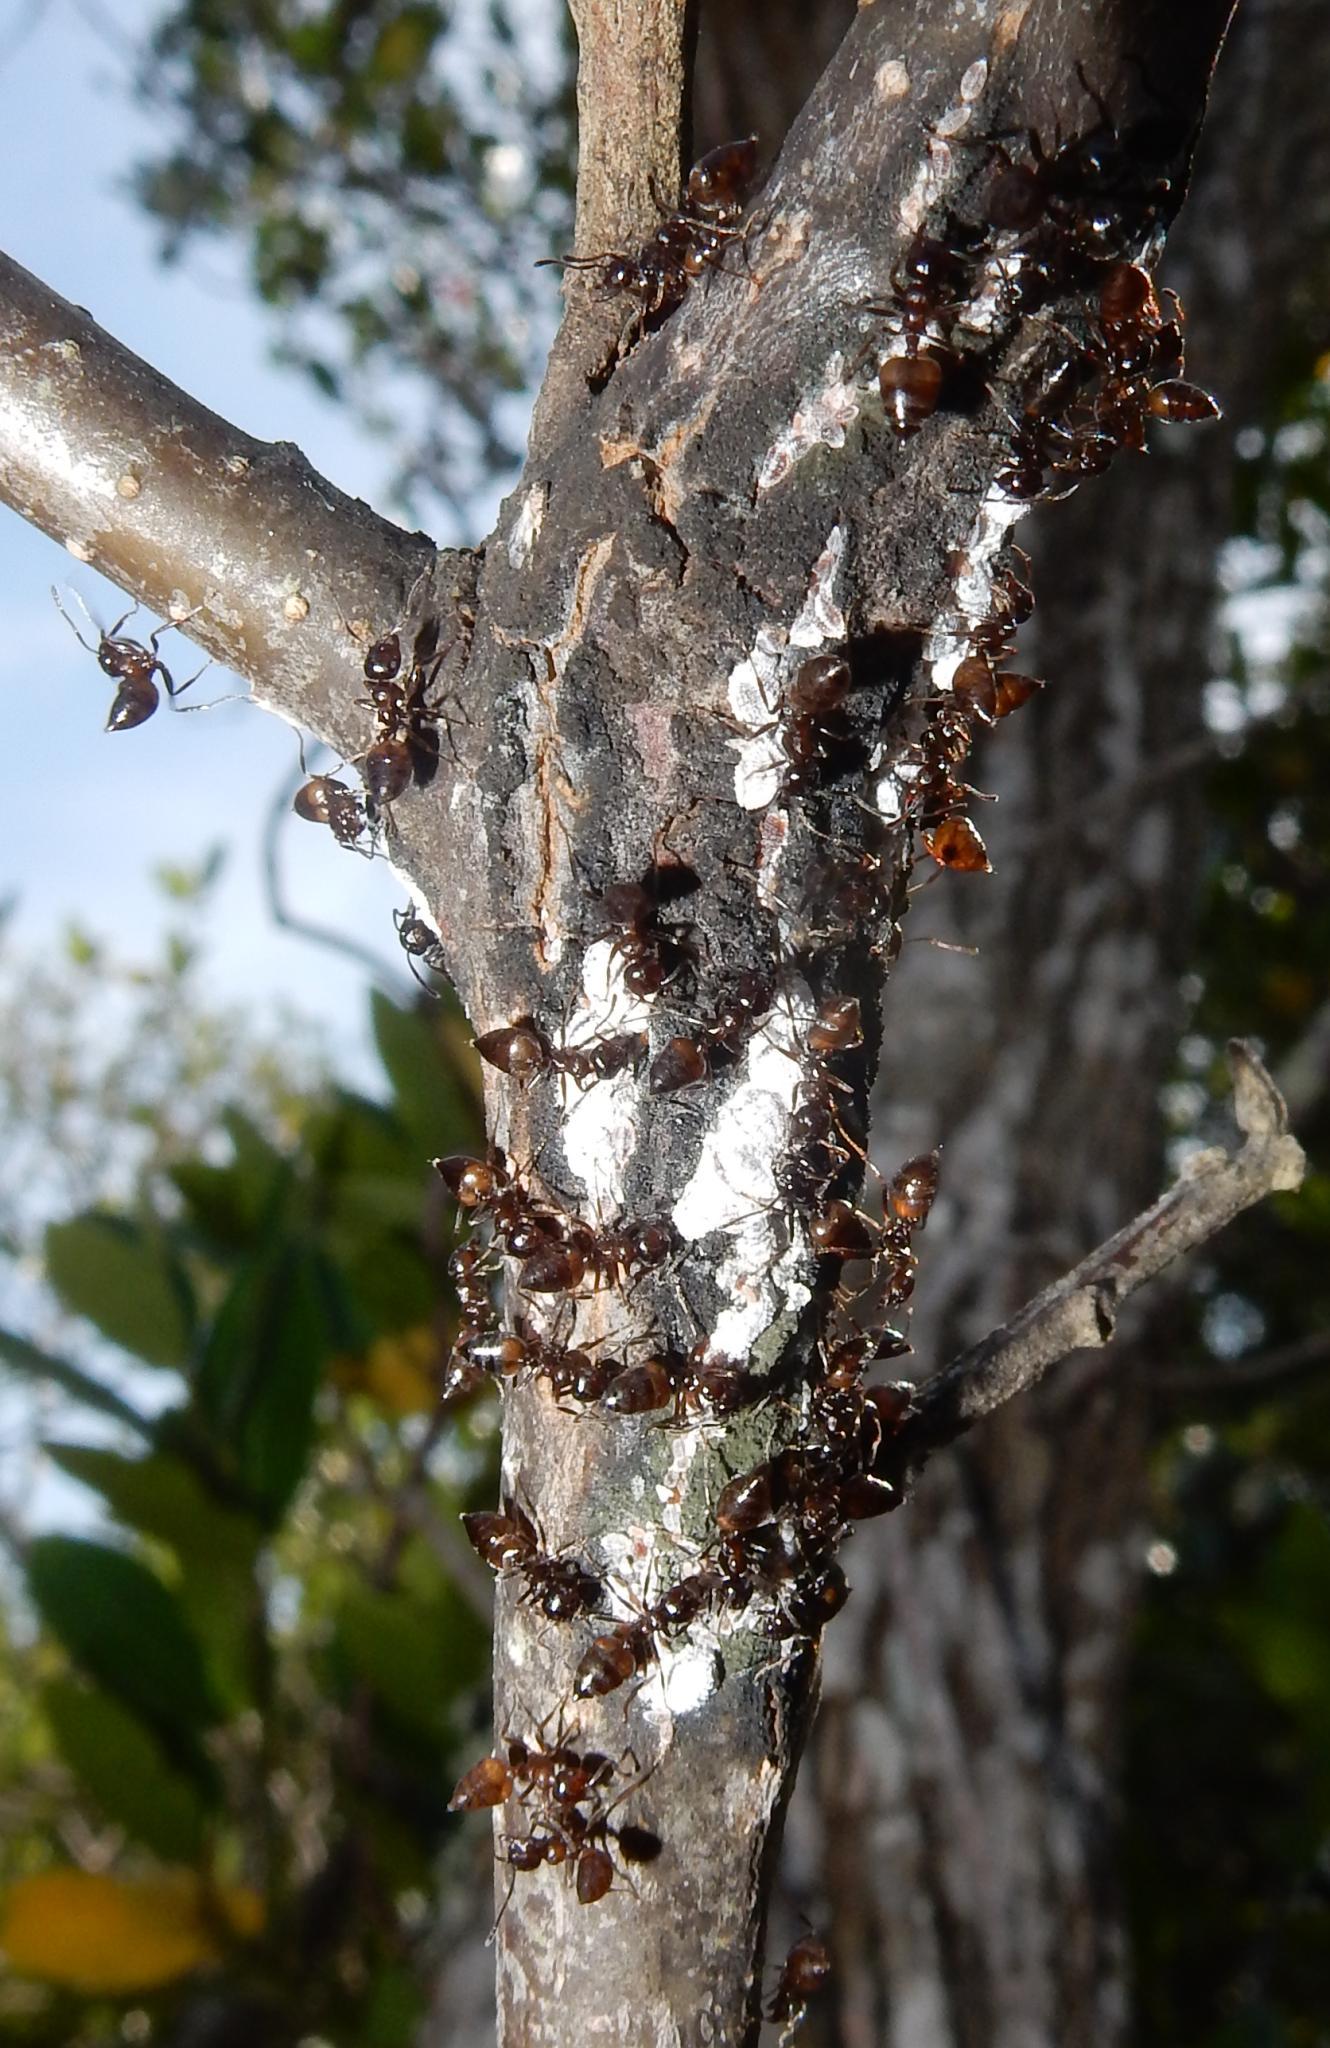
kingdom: Animalia
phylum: Arthropoda
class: Insecta
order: Hymenoptera
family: Formicidae
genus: Crematogaster
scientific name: Crematogaster amita
